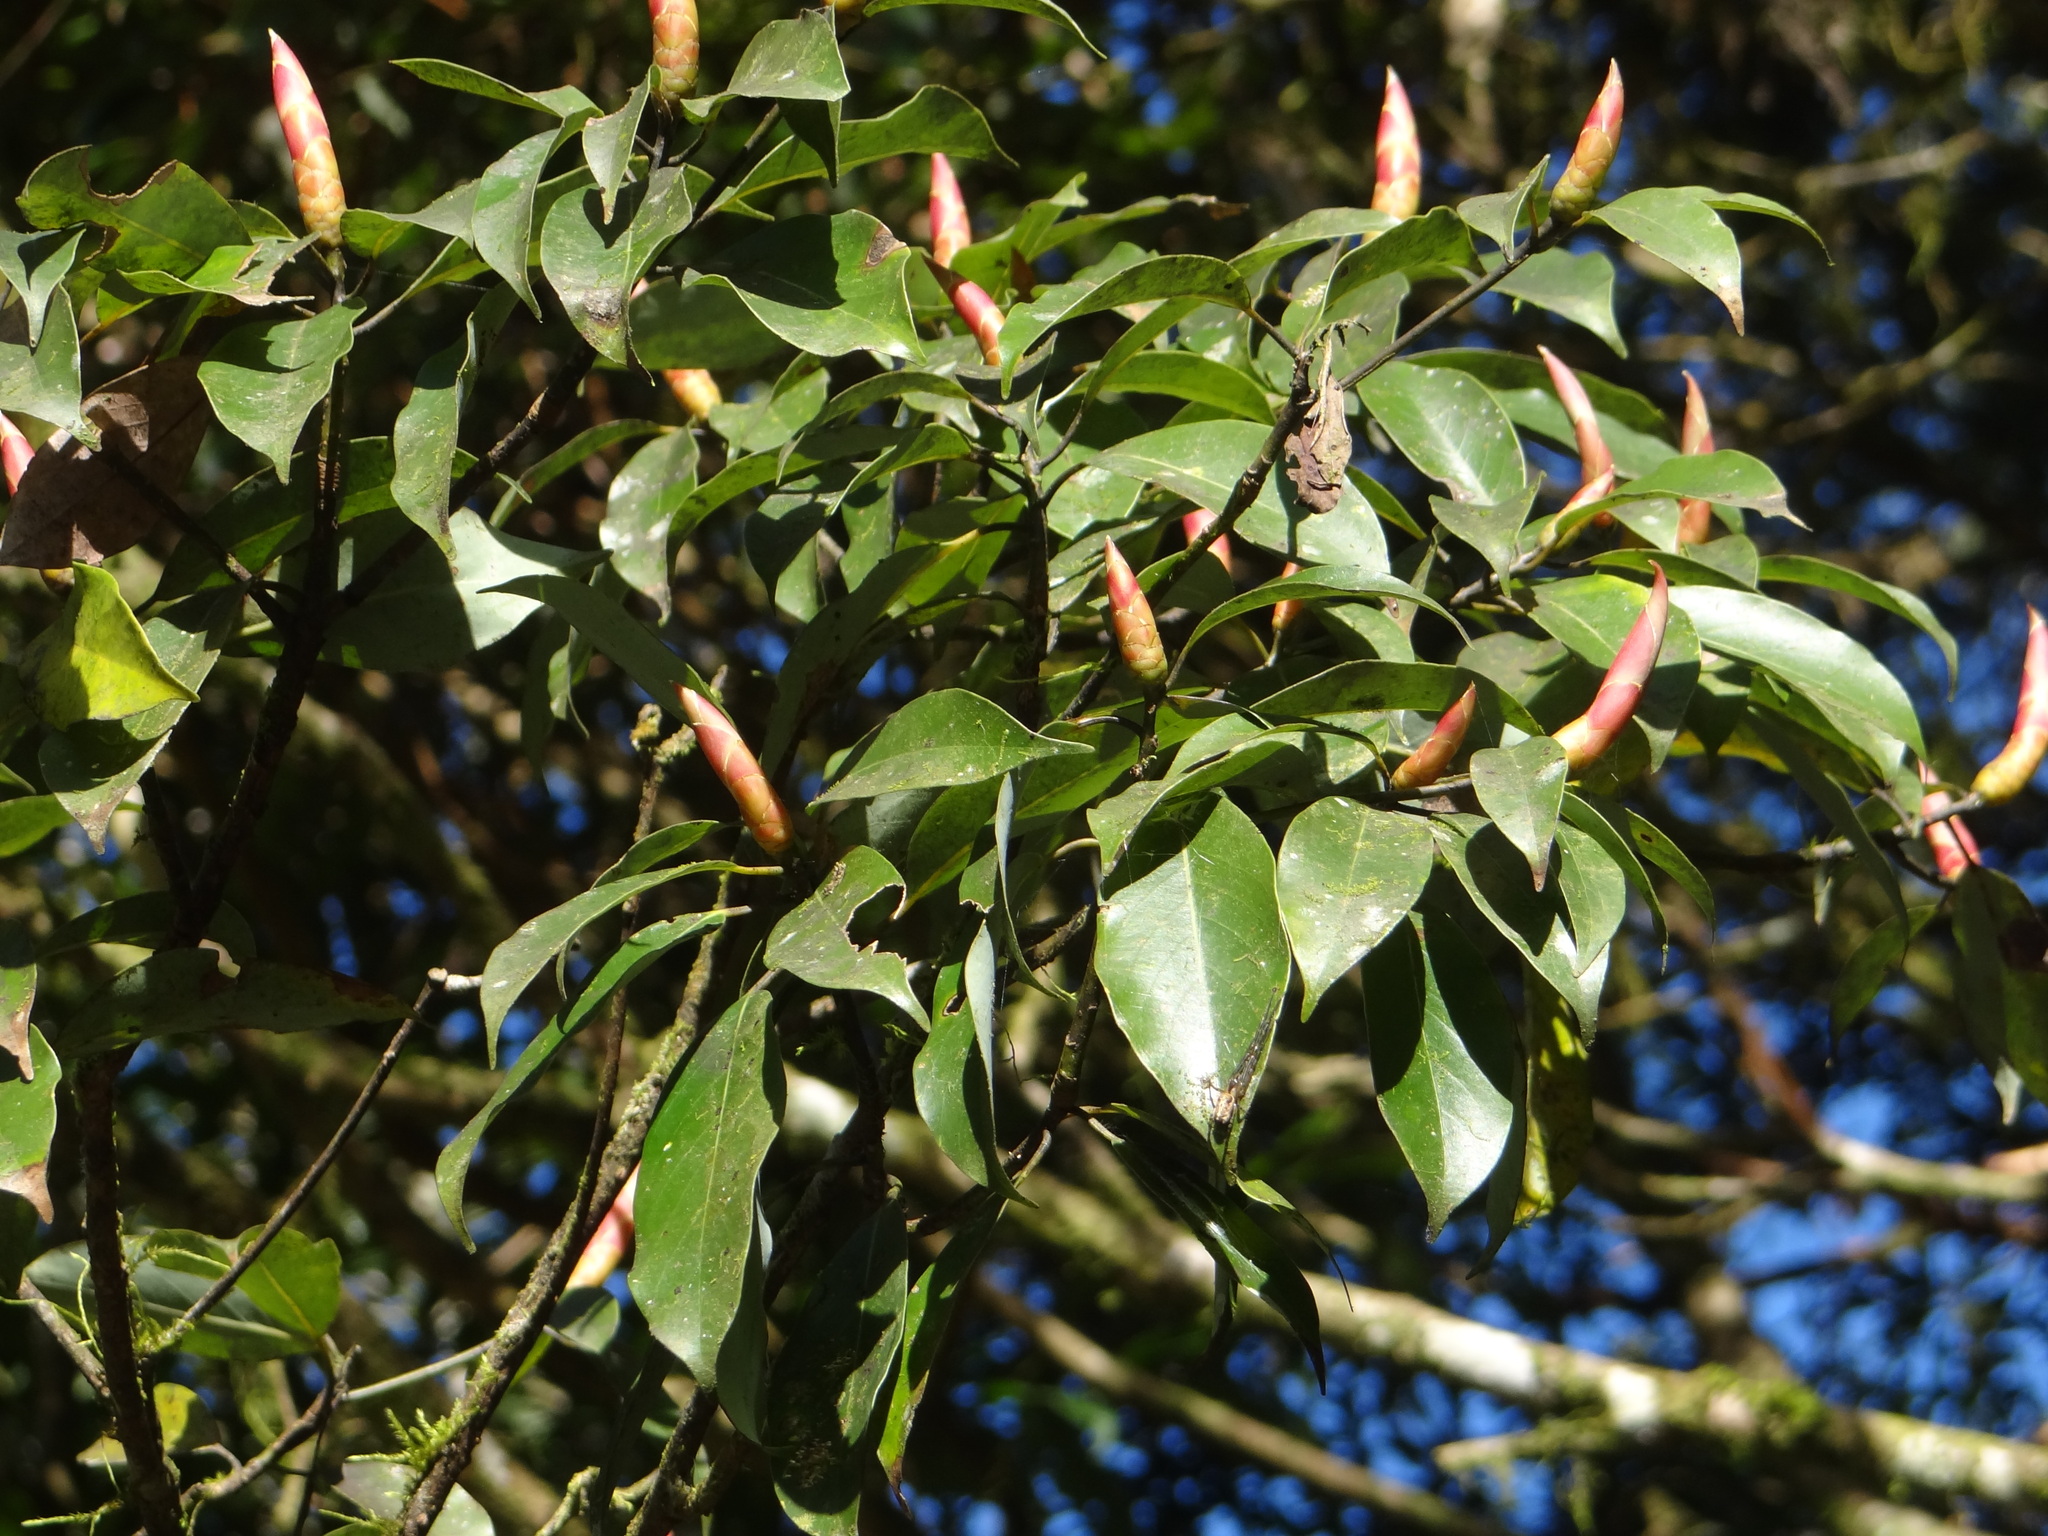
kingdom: Plantae
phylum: Tracheophyta
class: Magnoliopsida
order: Laurales
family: Lauraceae
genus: Machilus
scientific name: Machilus thunbergii
